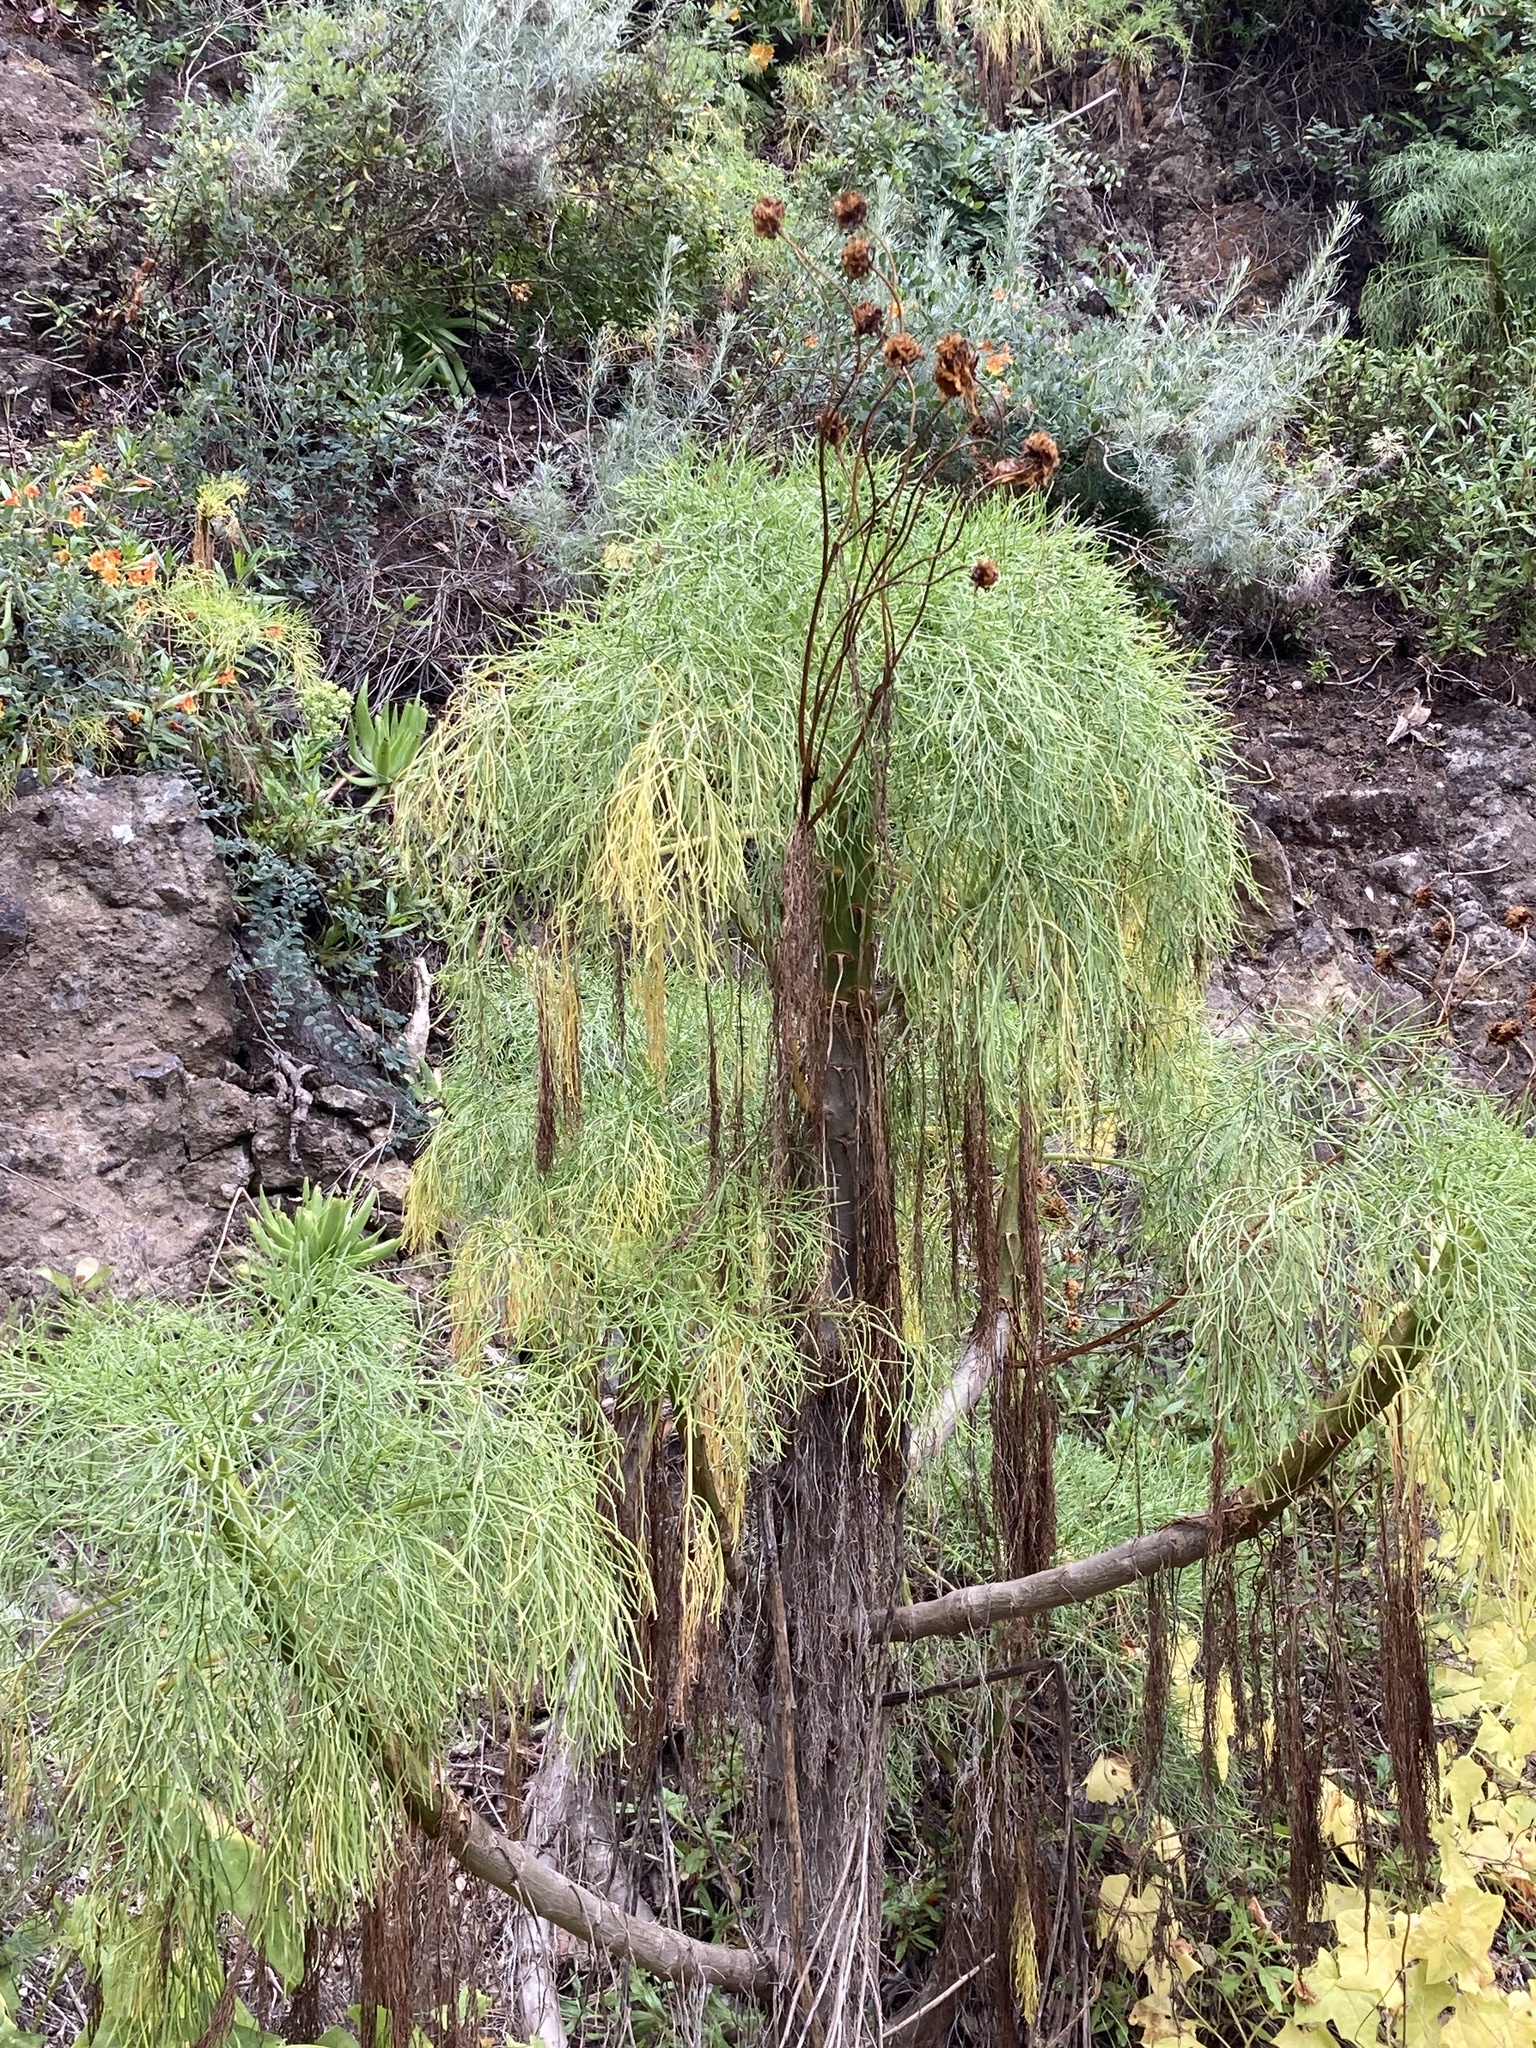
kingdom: Plantae
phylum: Tracheophyta
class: Magnoliopsida
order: Asterales
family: Asteraceae
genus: Coreopsis
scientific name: Coreopsis gigantea
